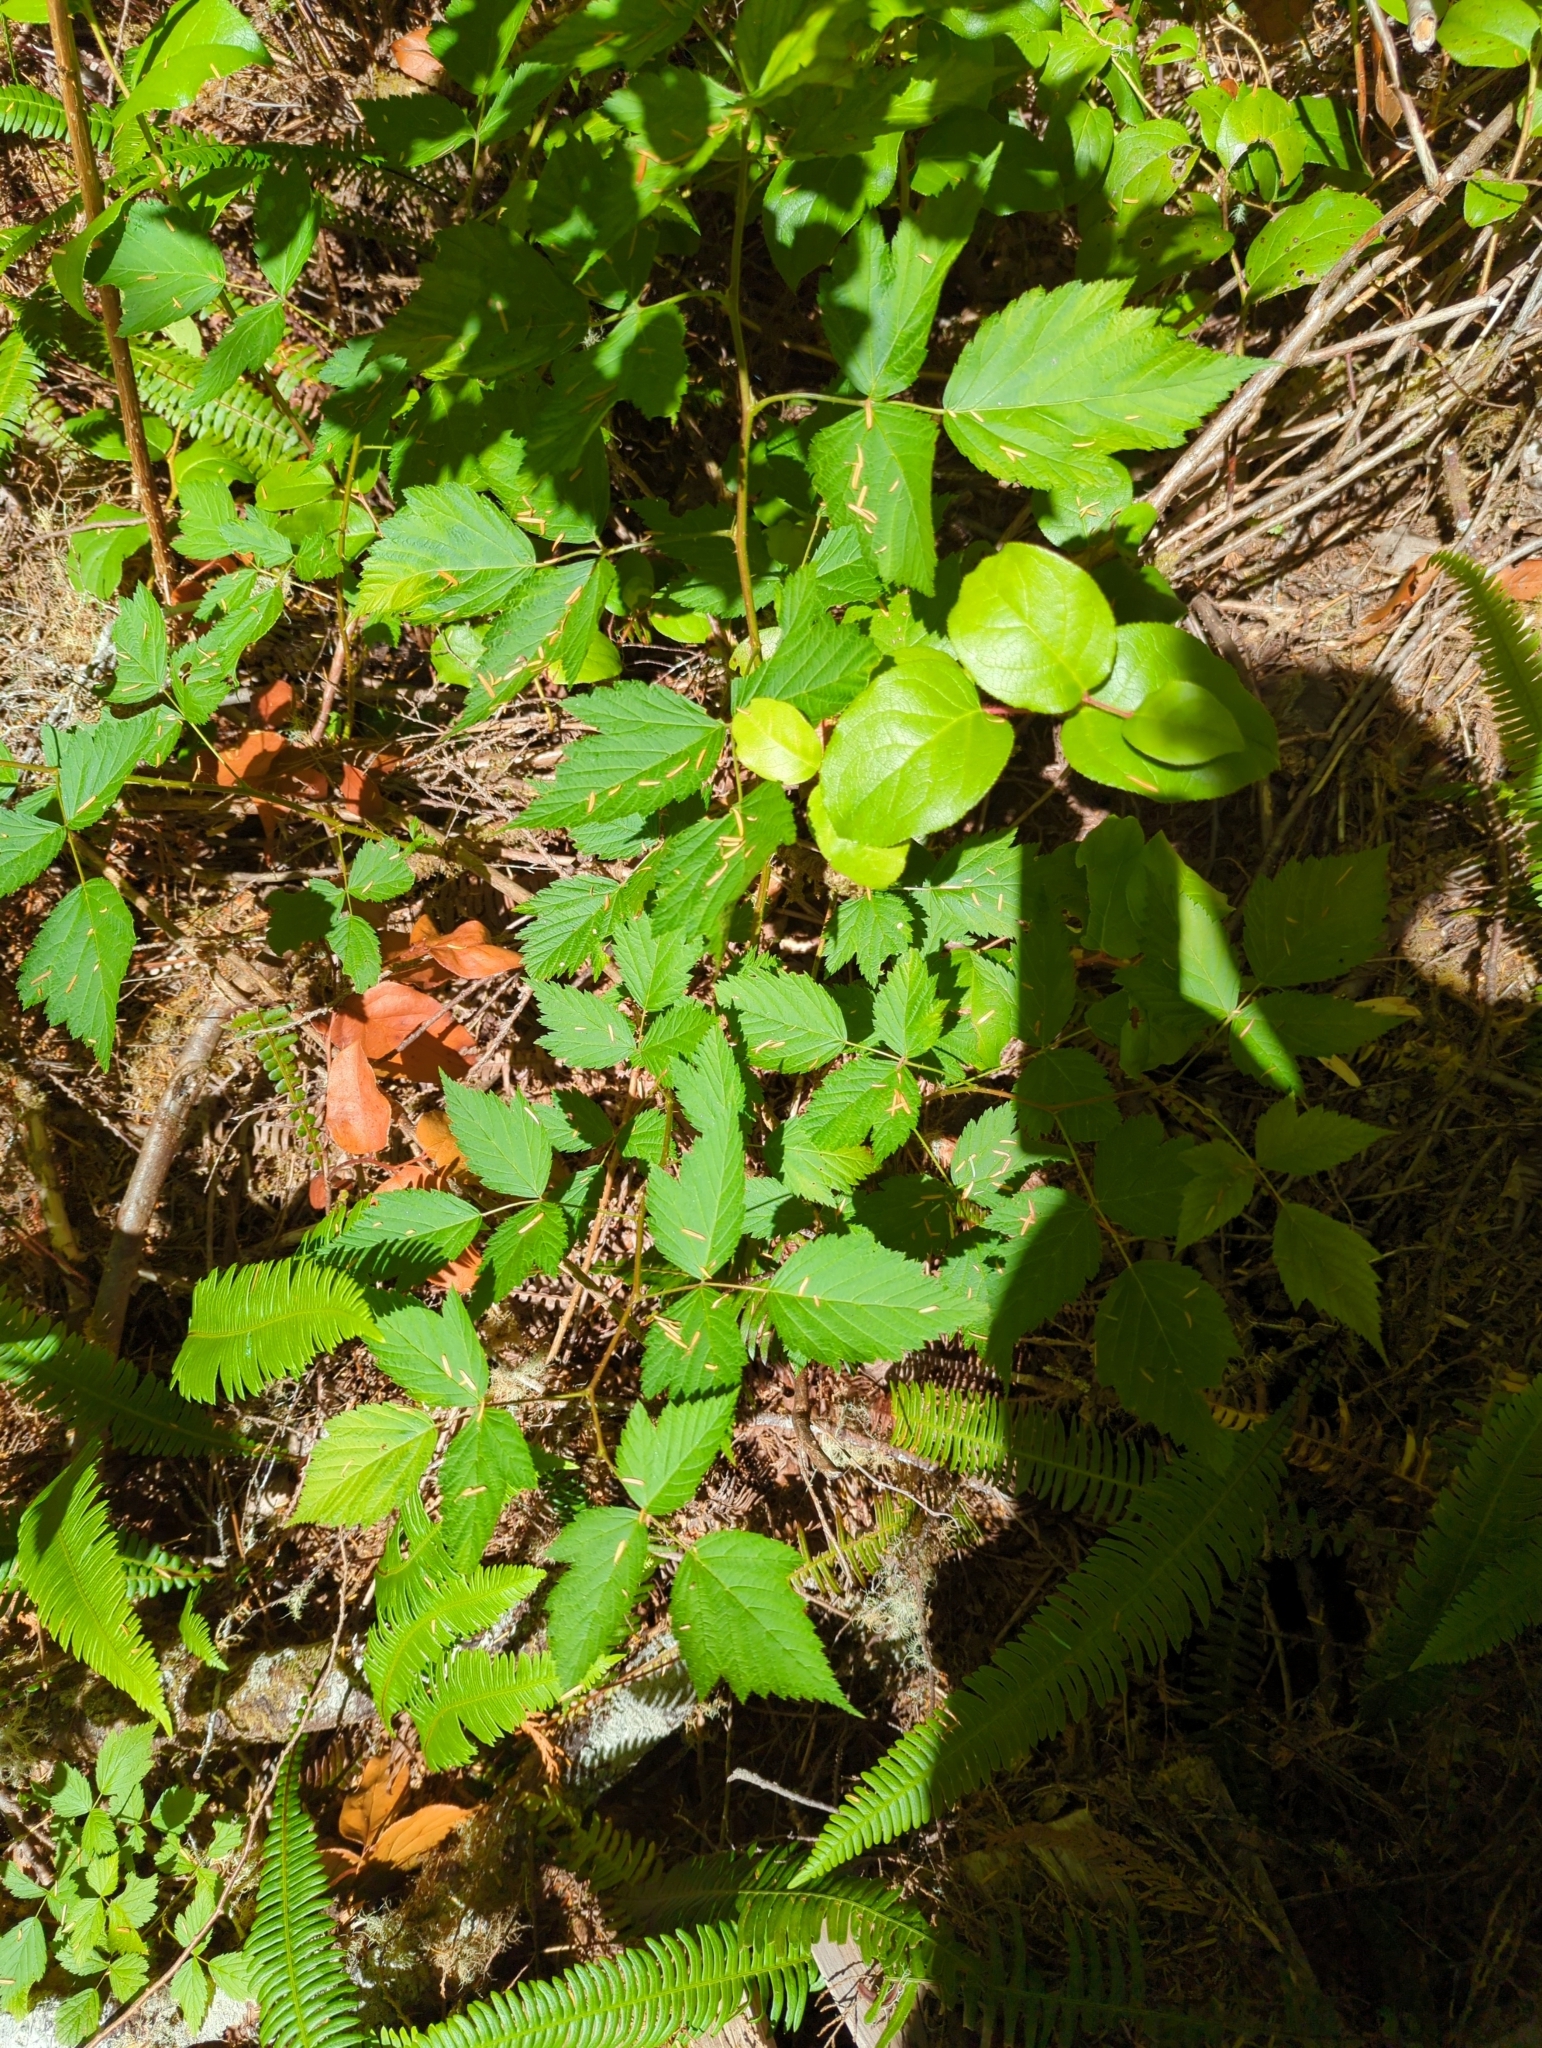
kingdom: Plantae
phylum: Tracheophyta
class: Magnoliopsida
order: Rosales
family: Rosaceae
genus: Rubus
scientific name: Rubus spectabilis
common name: Salmonberry
